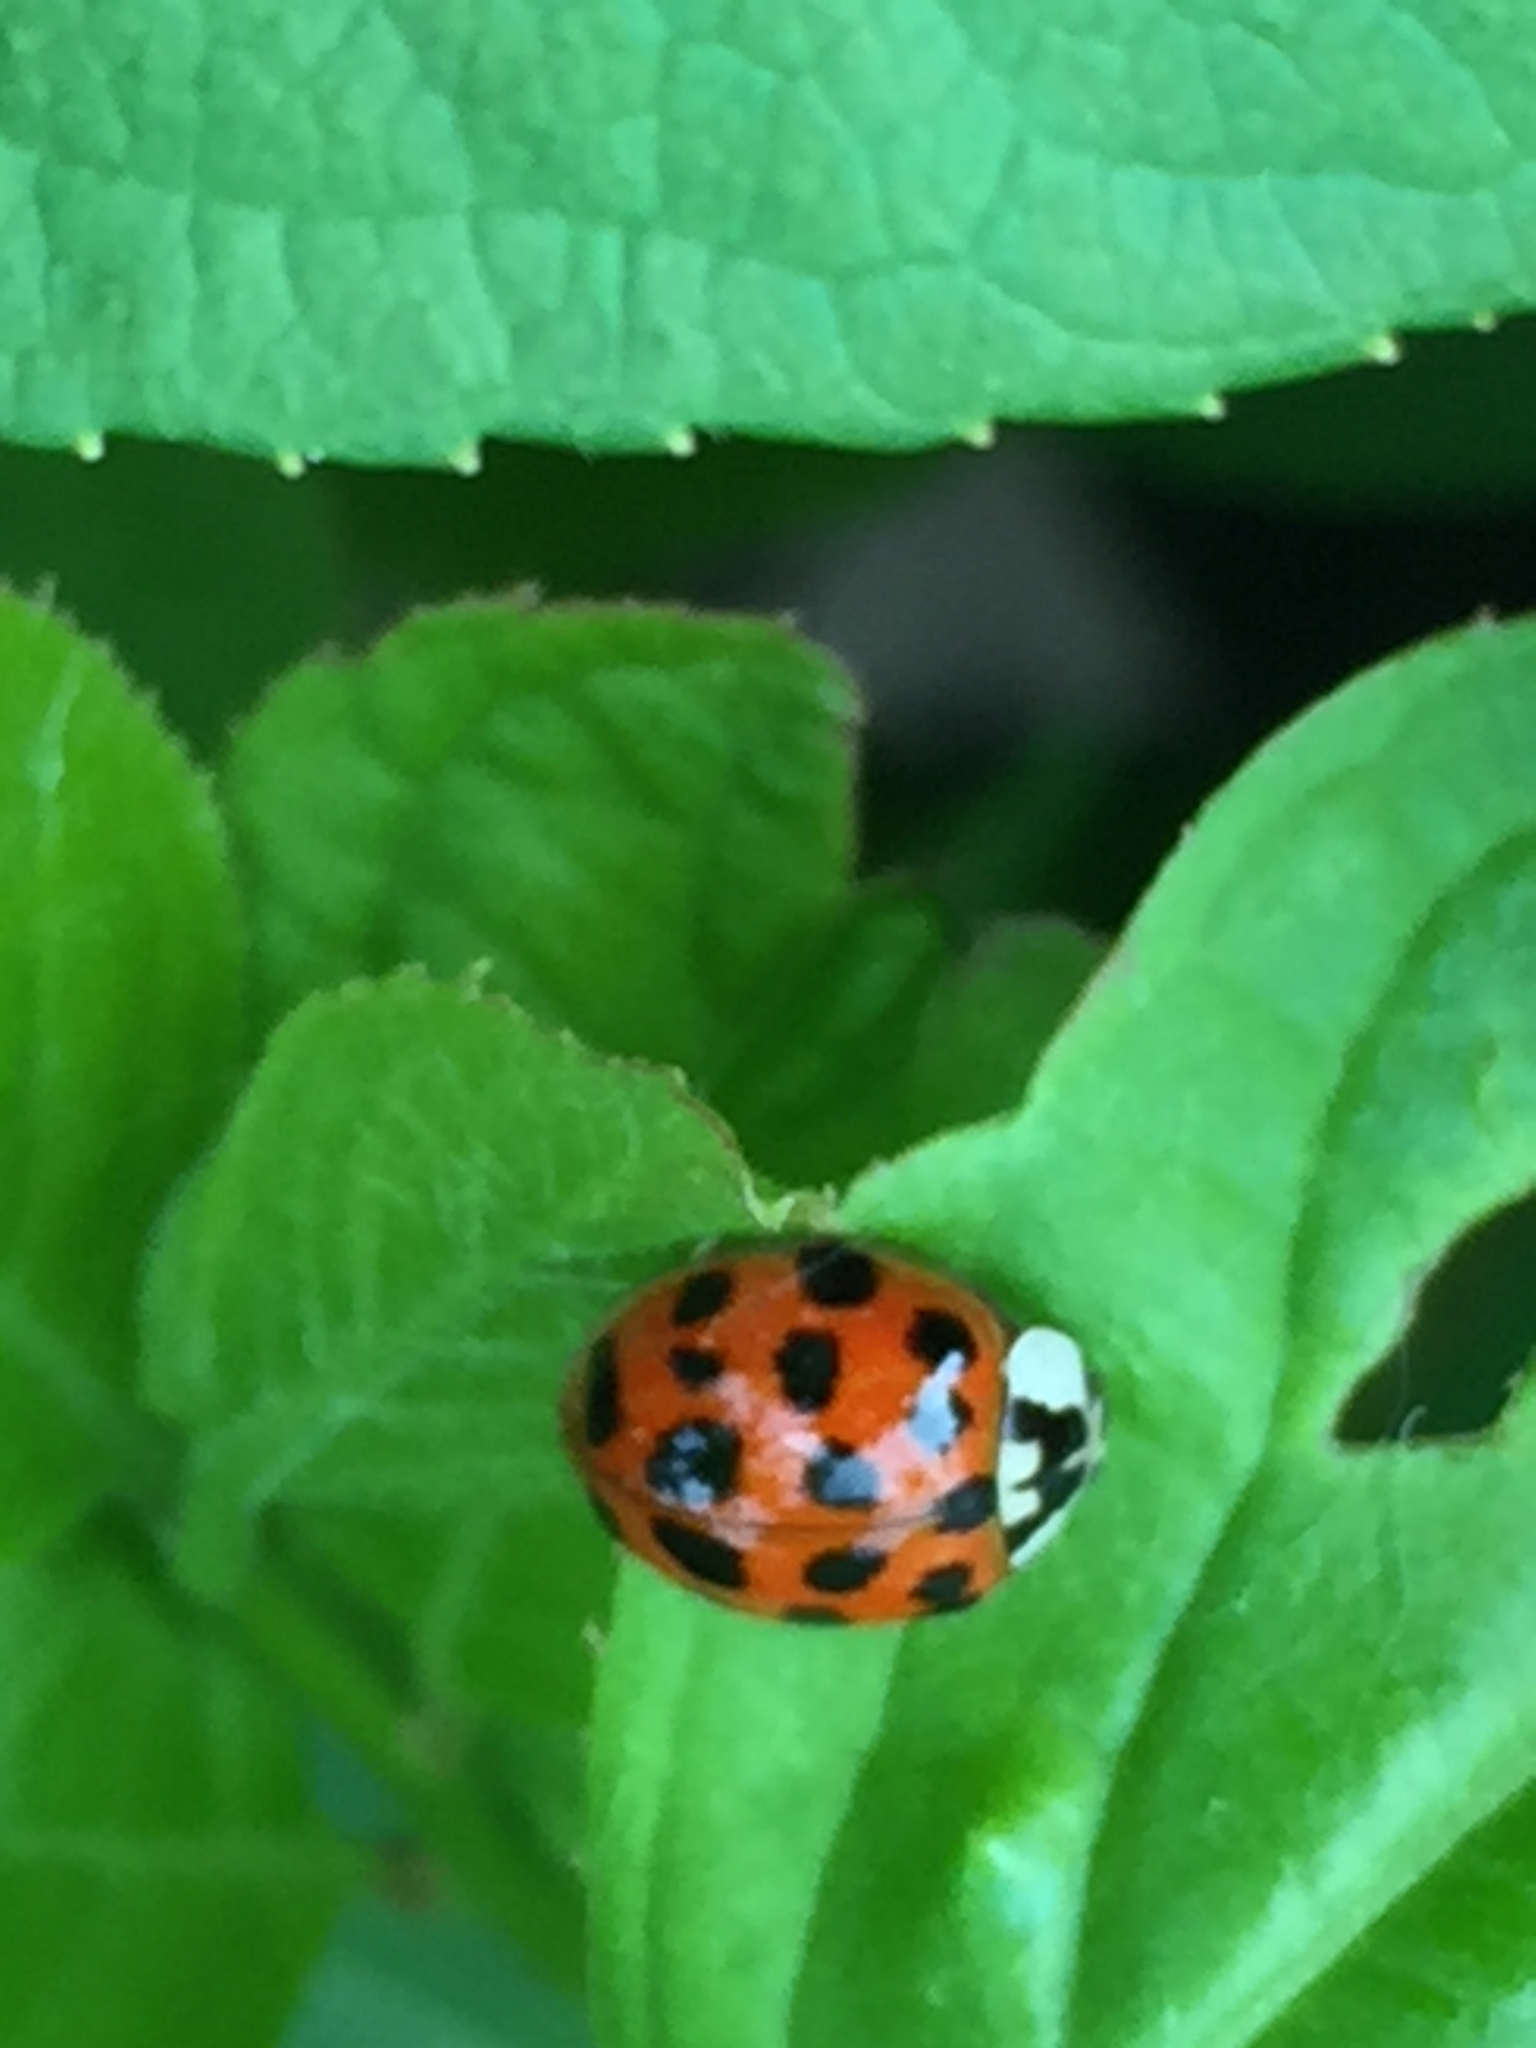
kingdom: Animalia
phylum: Arthropoda
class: Insecta
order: Coleoptera
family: Coccinellidae
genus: Harmonia
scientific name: Harmonia axyridis
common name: Harlequin ladybird
